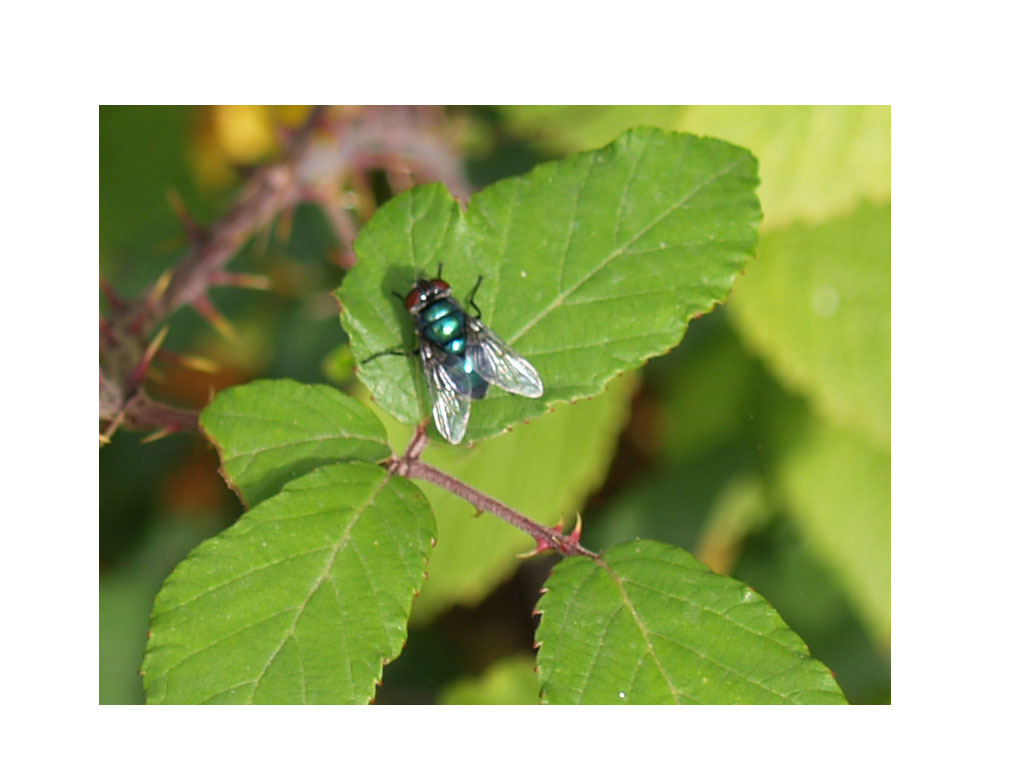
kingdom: Animalia
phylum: Arthropoda
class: Insecta
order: Diptera
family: Calliphoridae
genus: Chrysomya
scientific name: Chrysomya albiceps
